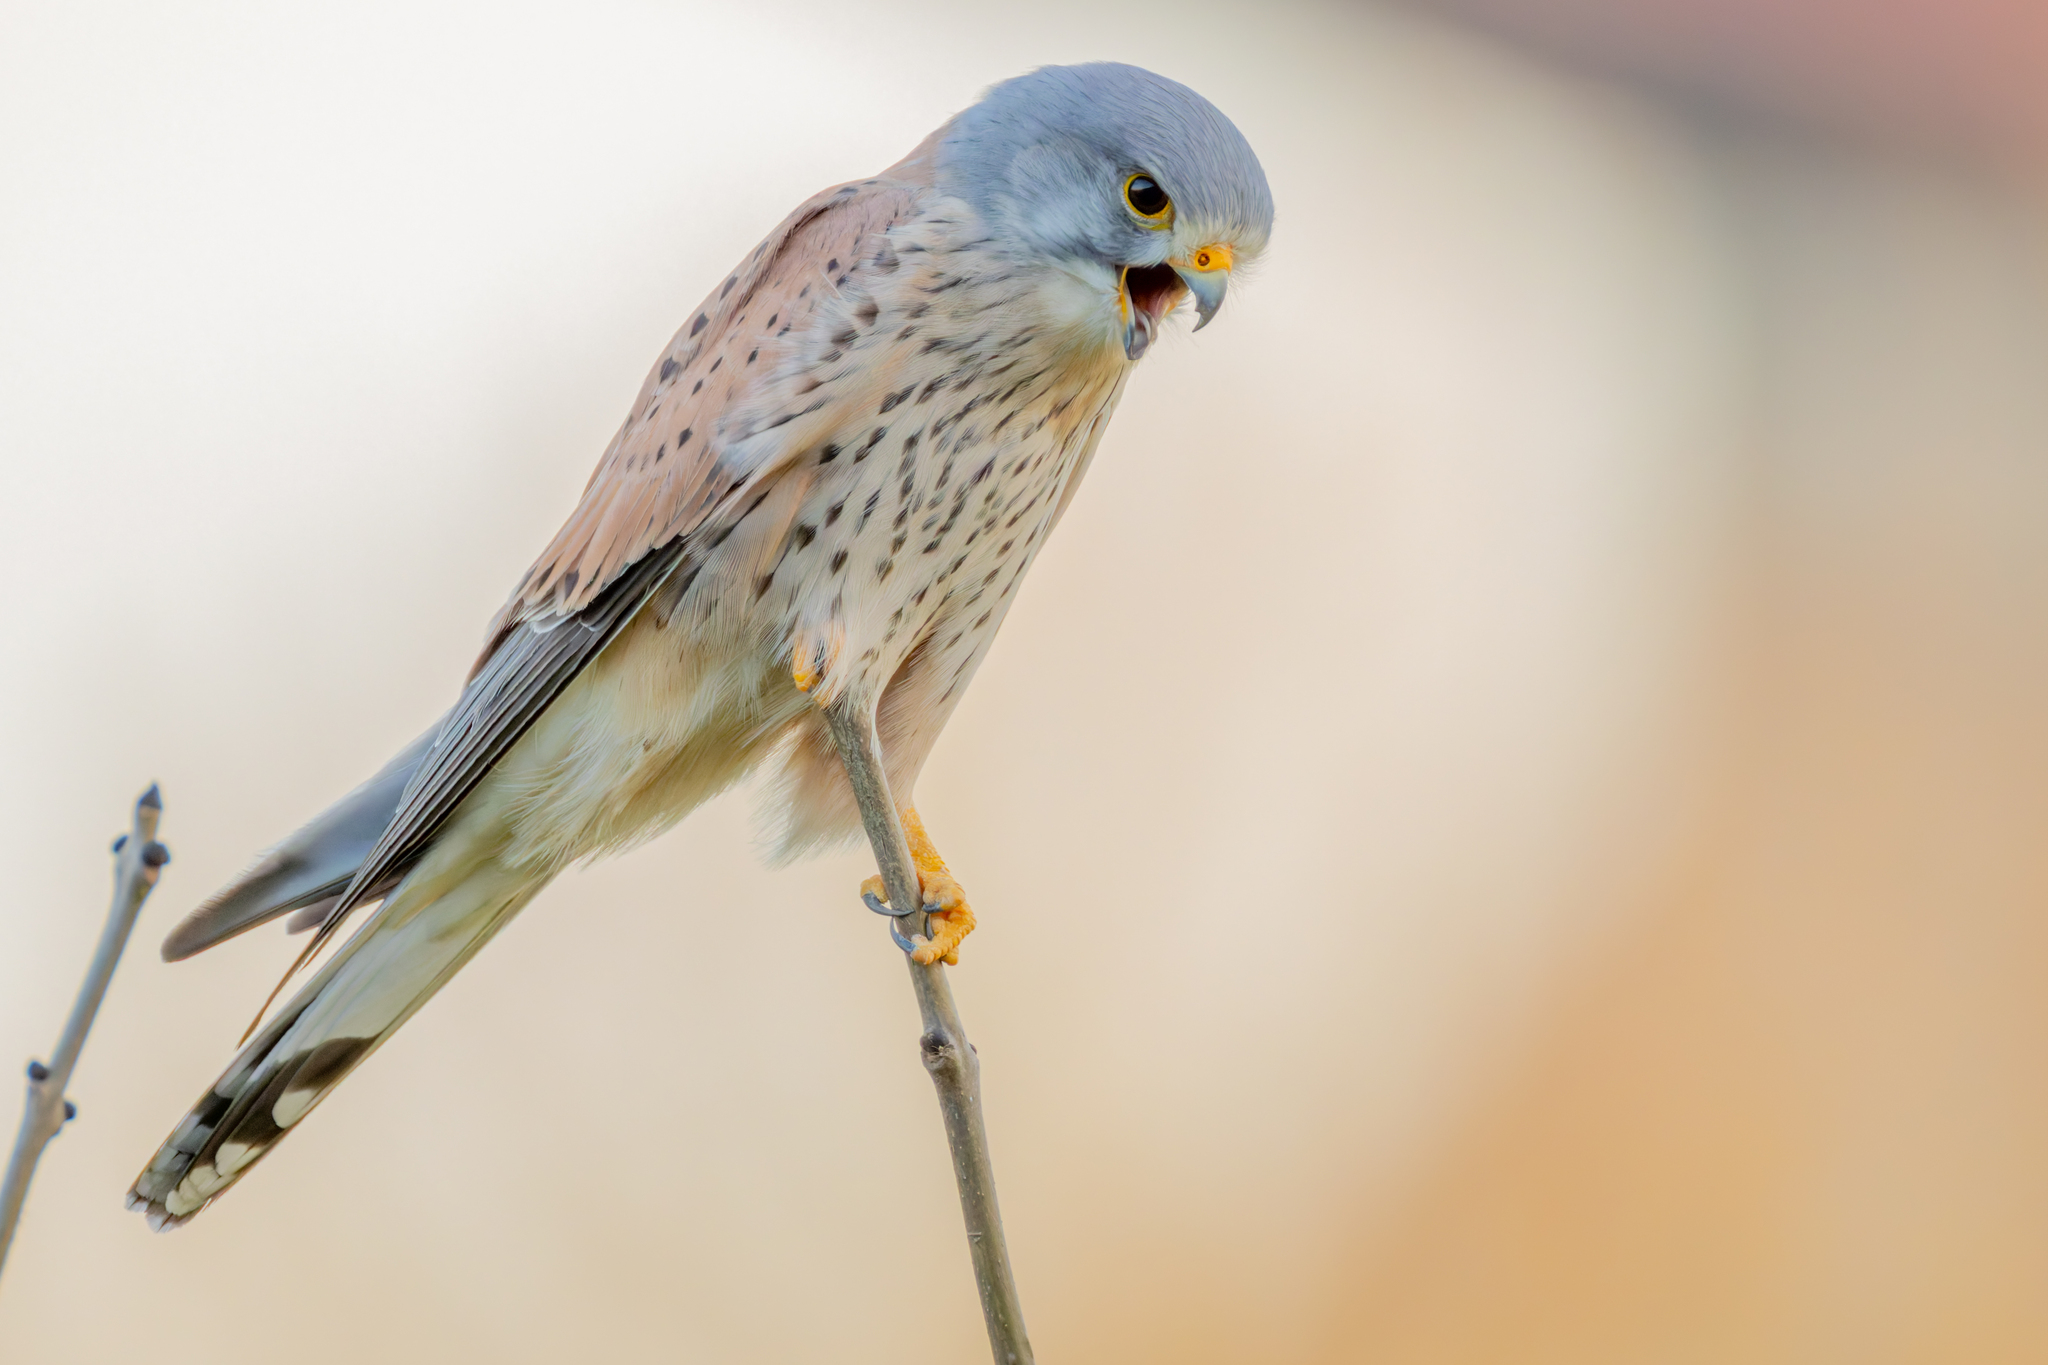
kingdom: Animalia
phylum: Chordata
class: Aves
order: Falconiformes
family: Falconidae
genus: Falco
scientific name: Falco tinnunculus
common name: Common kestrel
